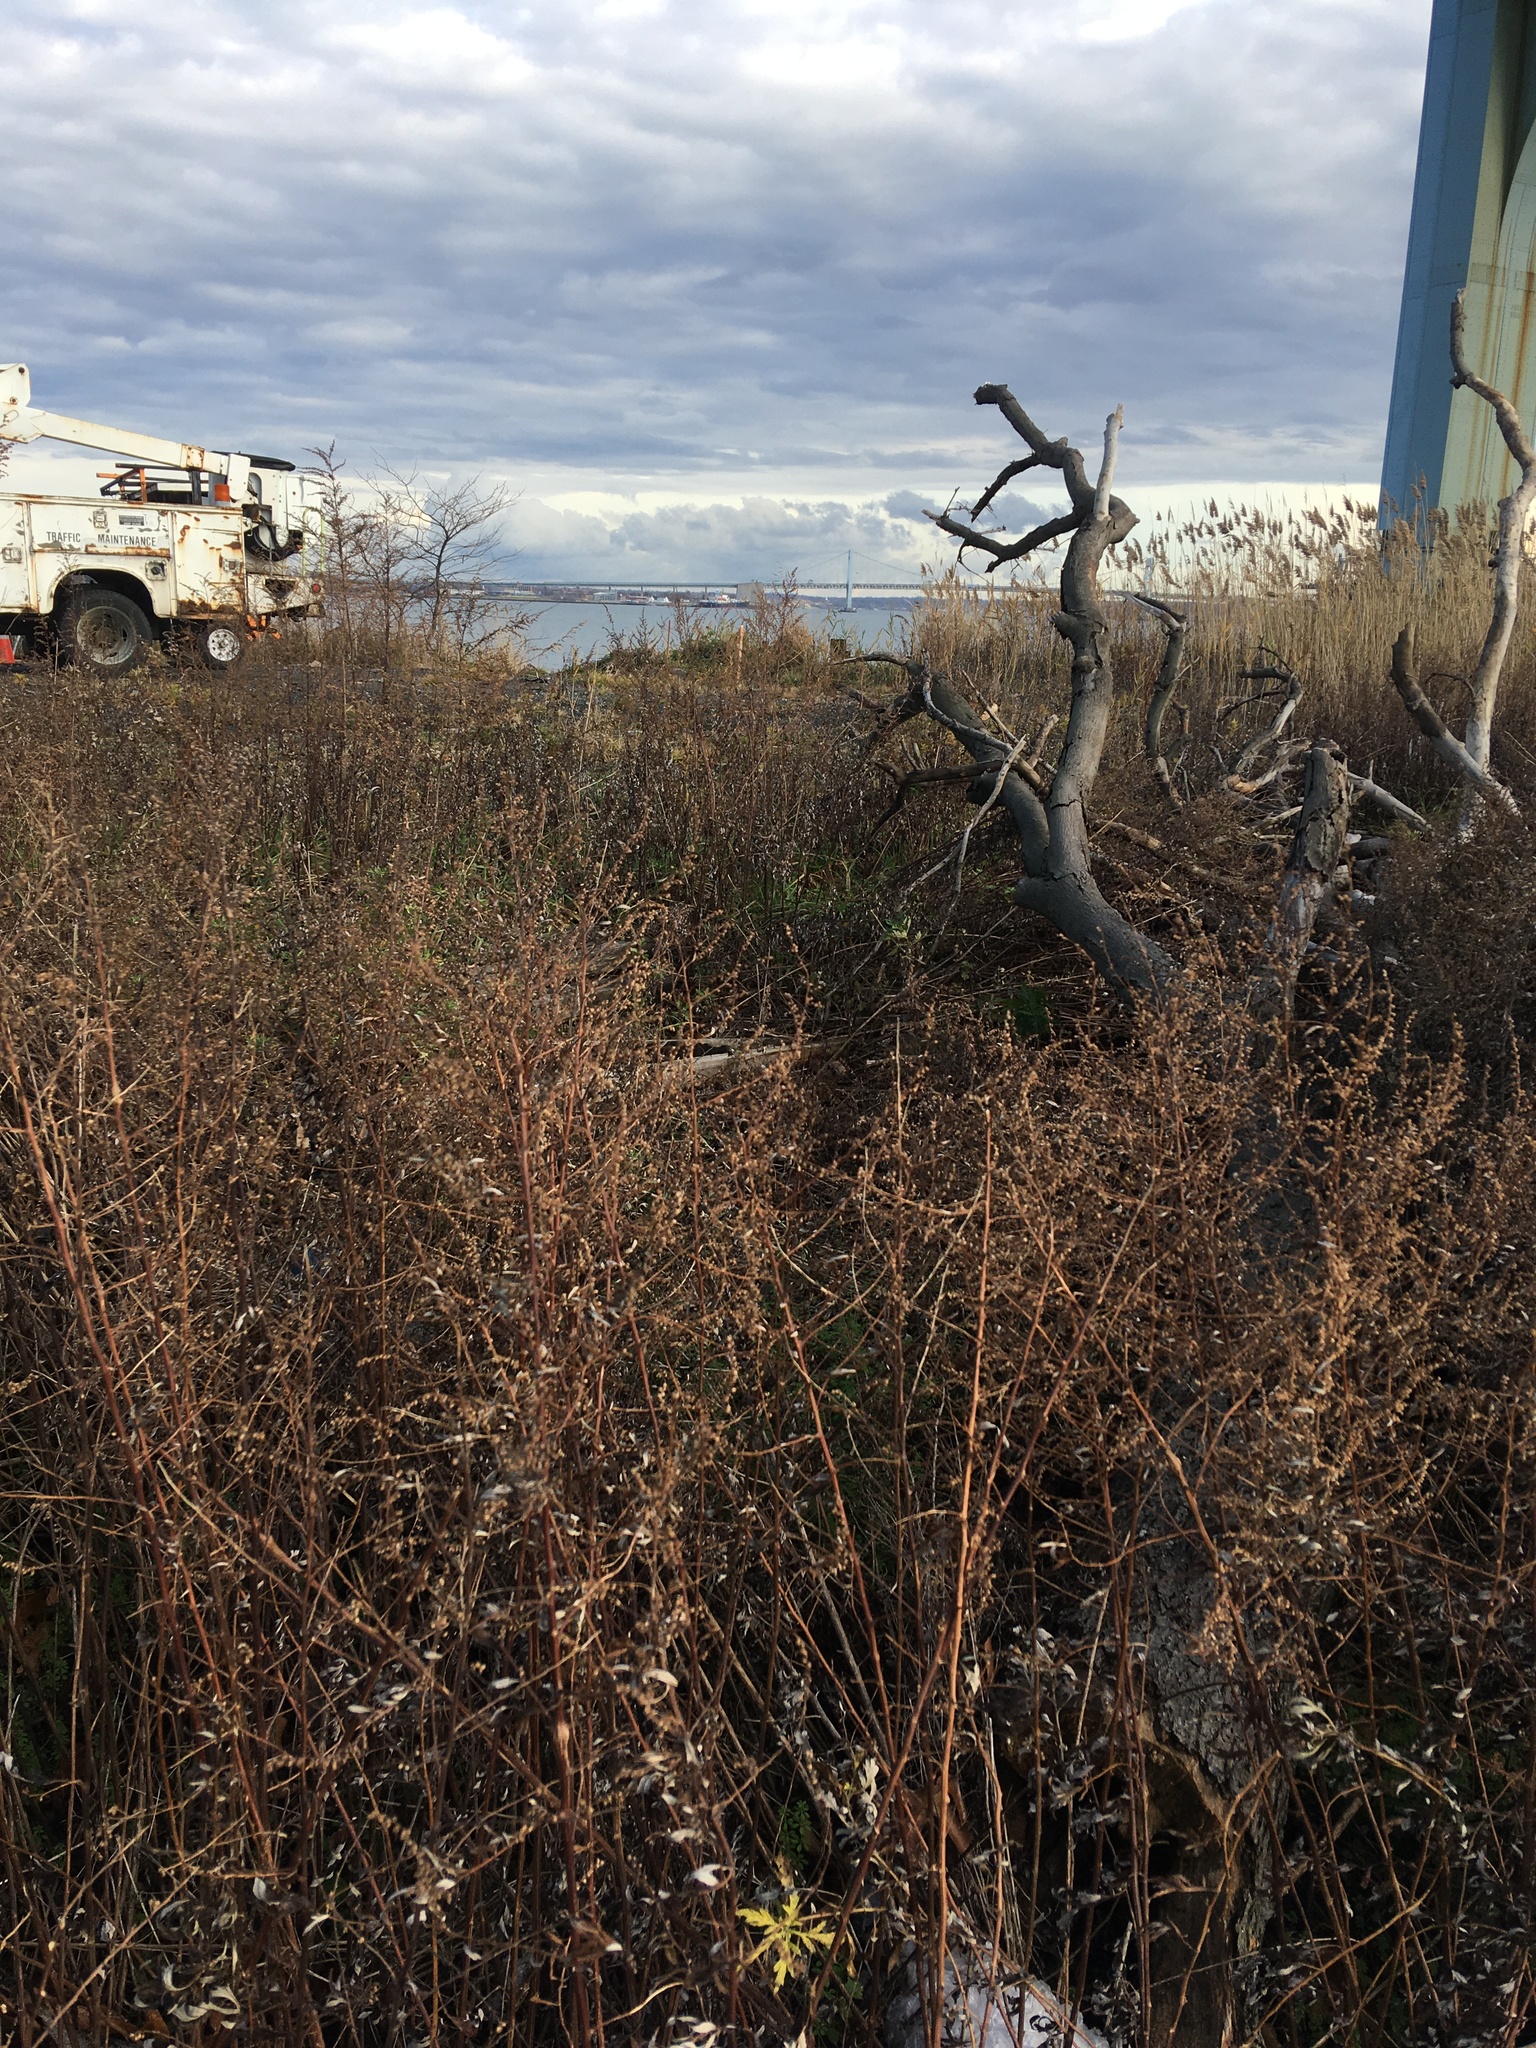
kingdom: Plantae
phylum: Tracheophyta
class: Magnoliopsida
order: Asterales
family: Asteraceae
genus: Artemisia
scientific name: Artemisia vulgaris
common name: Mugwort
